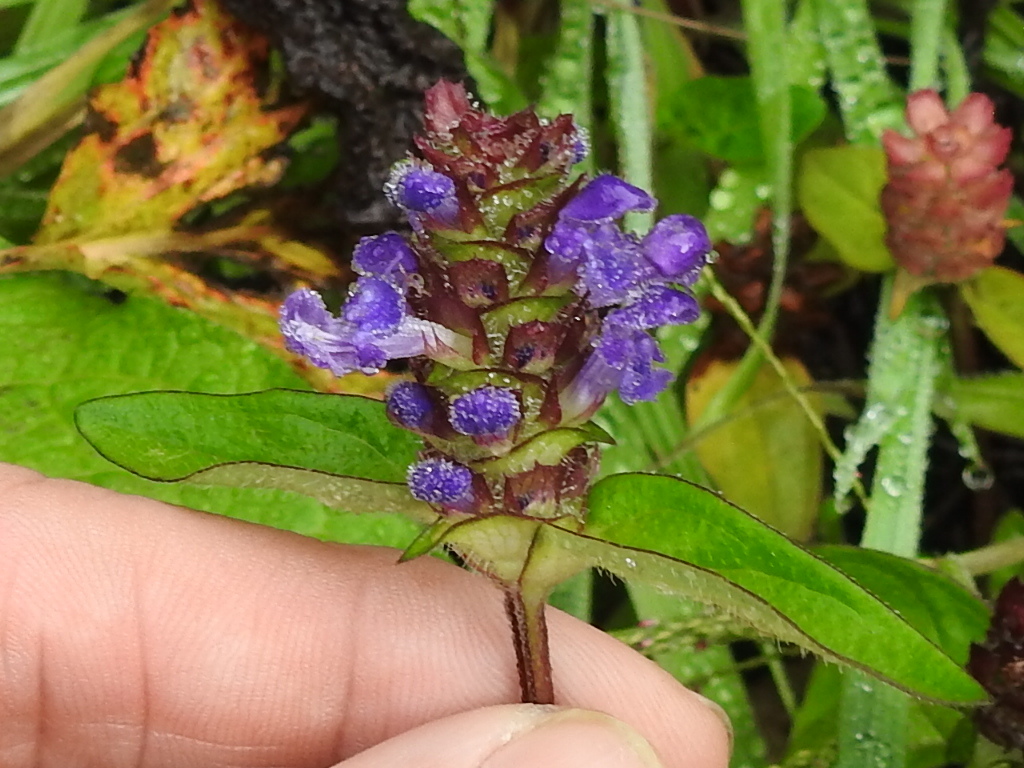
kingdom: Plantae
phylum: Tracheophyta
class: Magnoliopsida
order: Lamiales
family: Lamiaceae
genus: Prunella
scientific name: Prunella vulgaris
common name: Heal-all
